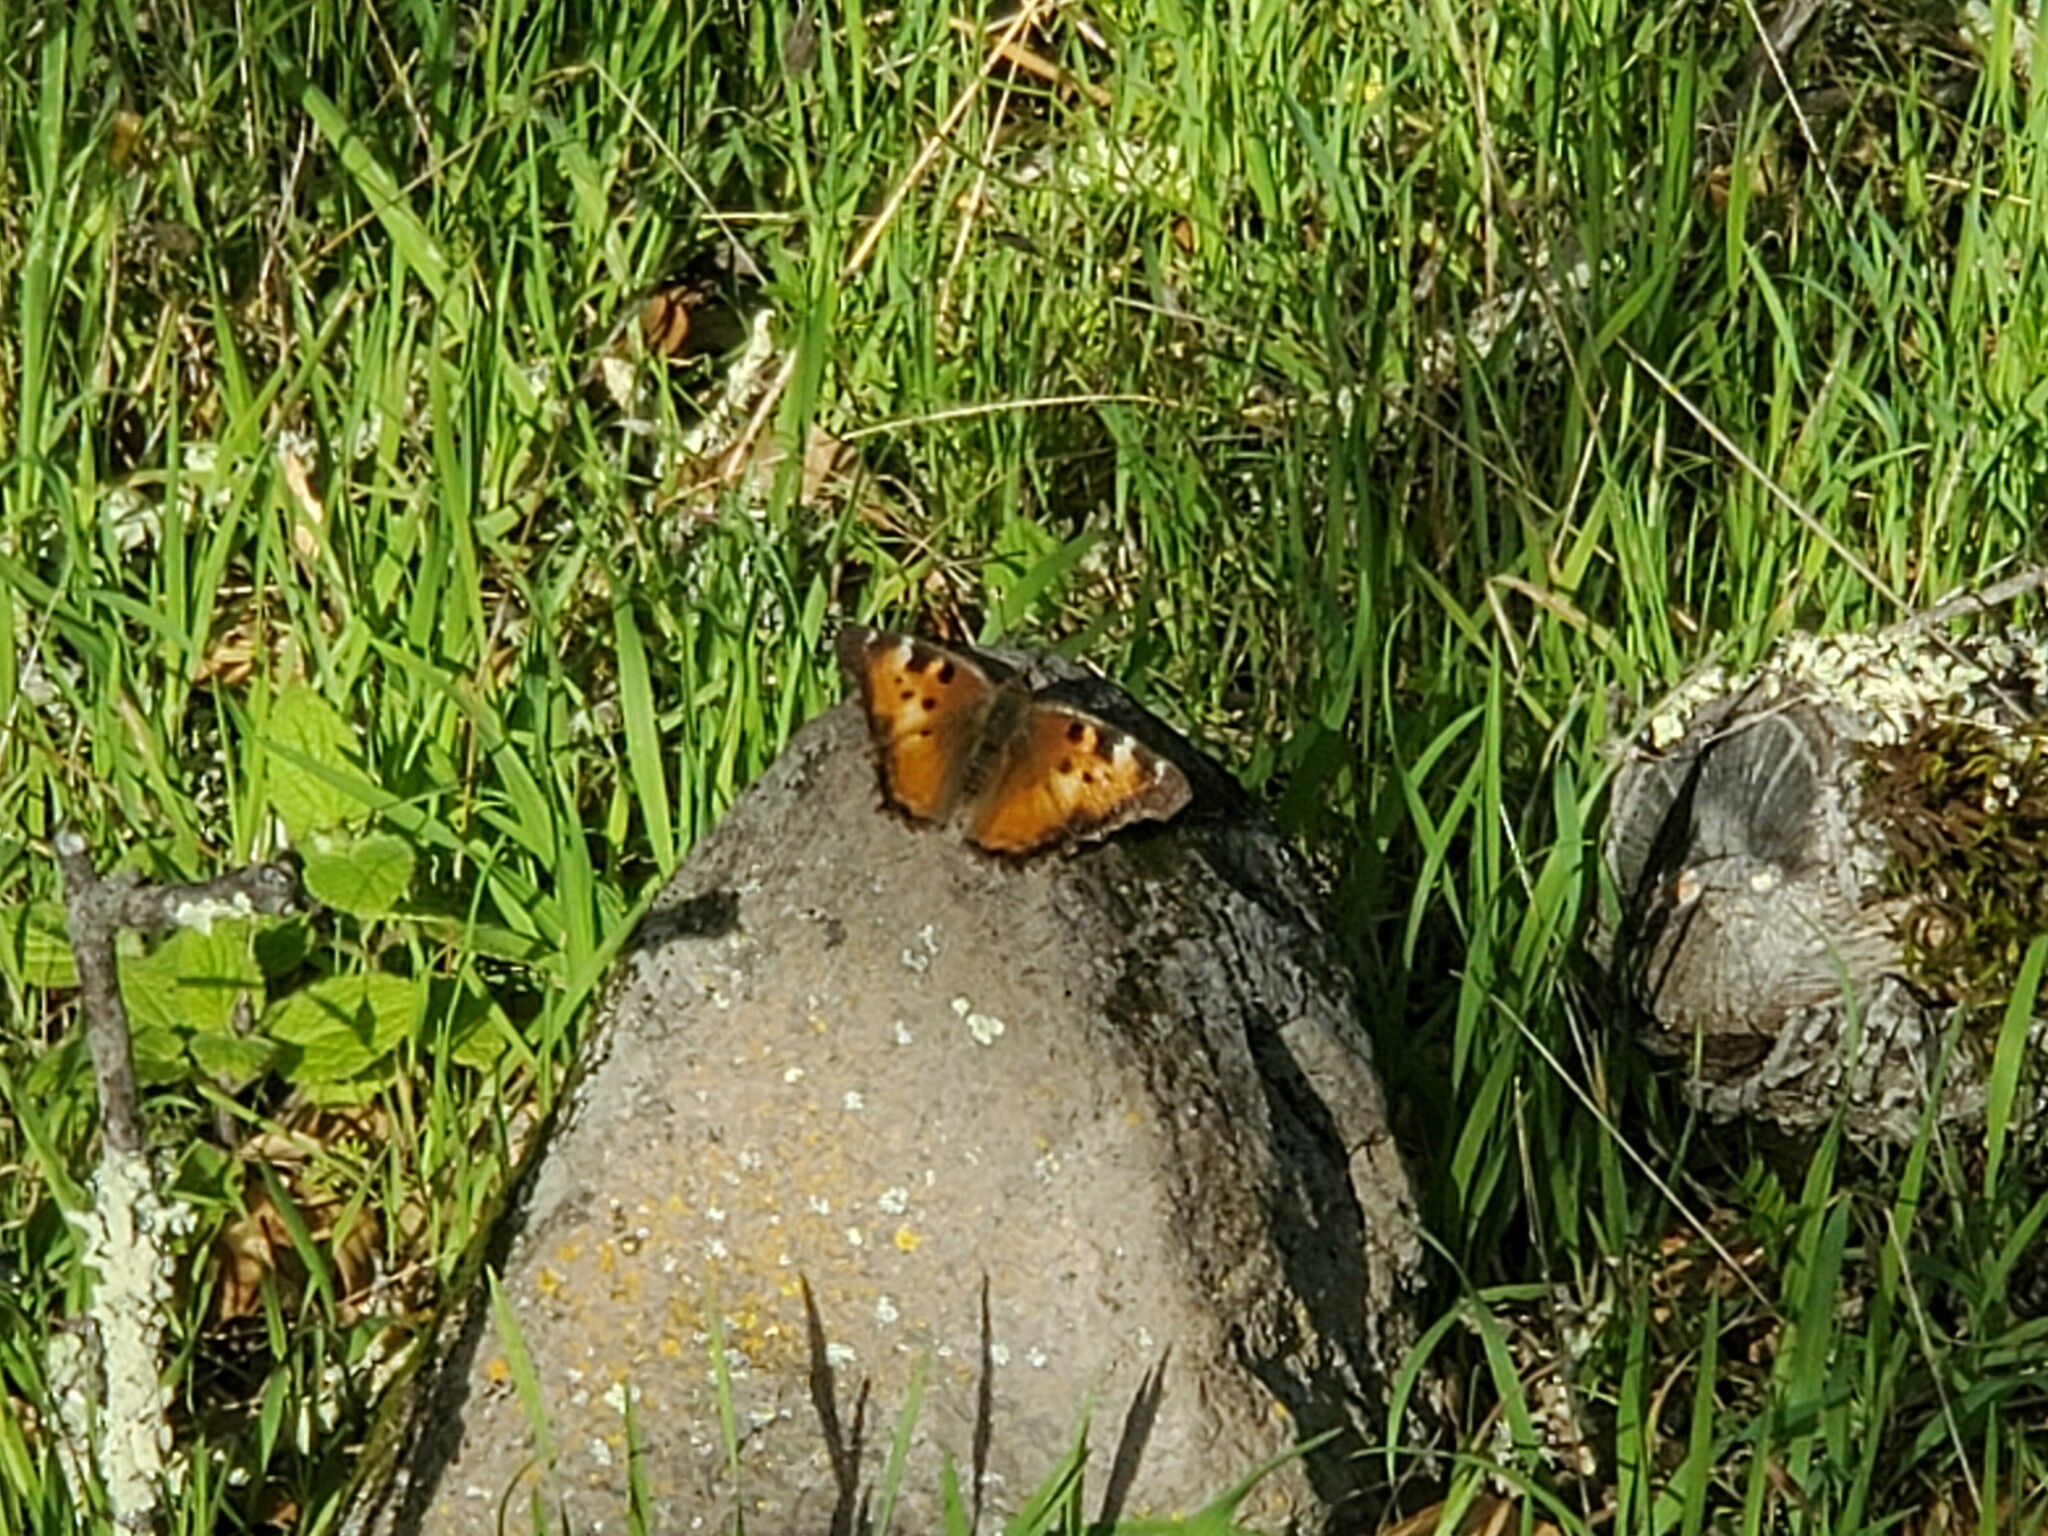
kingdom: Animalia
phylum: Arthropoda
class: Insecta
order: Lepidoptera
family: Nymphalidae
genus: Nymphalis
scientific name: Nymphalis californica
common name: California tortoiseshell
